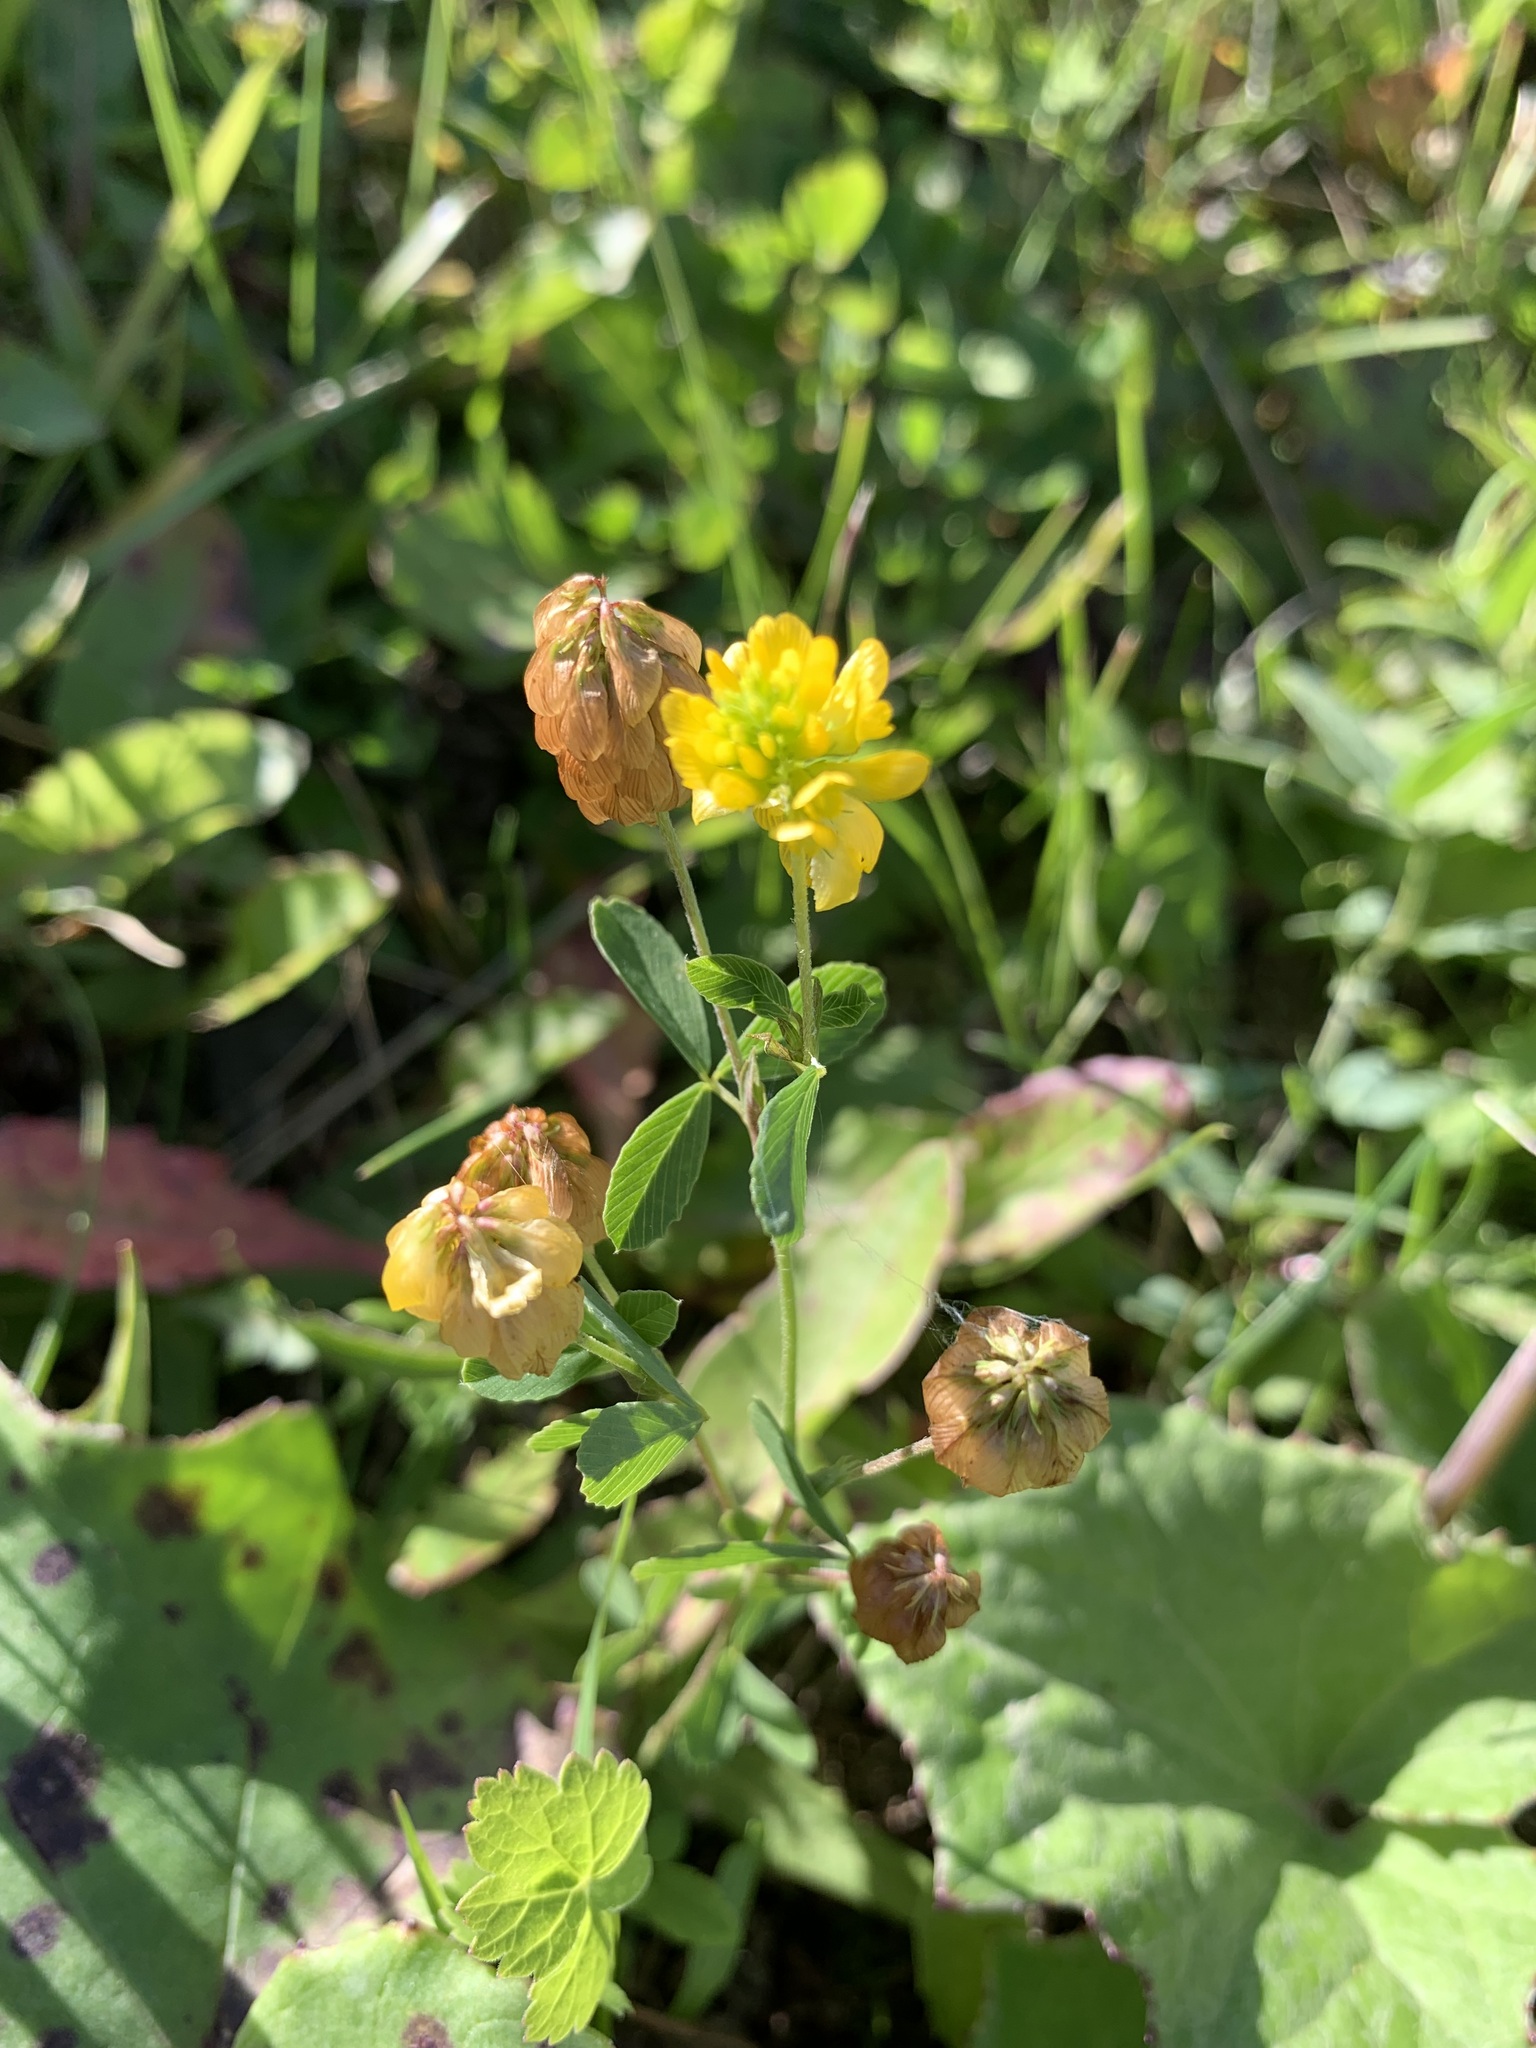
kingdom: Plantae
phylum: Tracheophyta
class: Magnoliopsida
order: Fabales
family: Fabaceae
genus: Trifolium
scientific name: Trifolium aureum
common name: Golden clover
